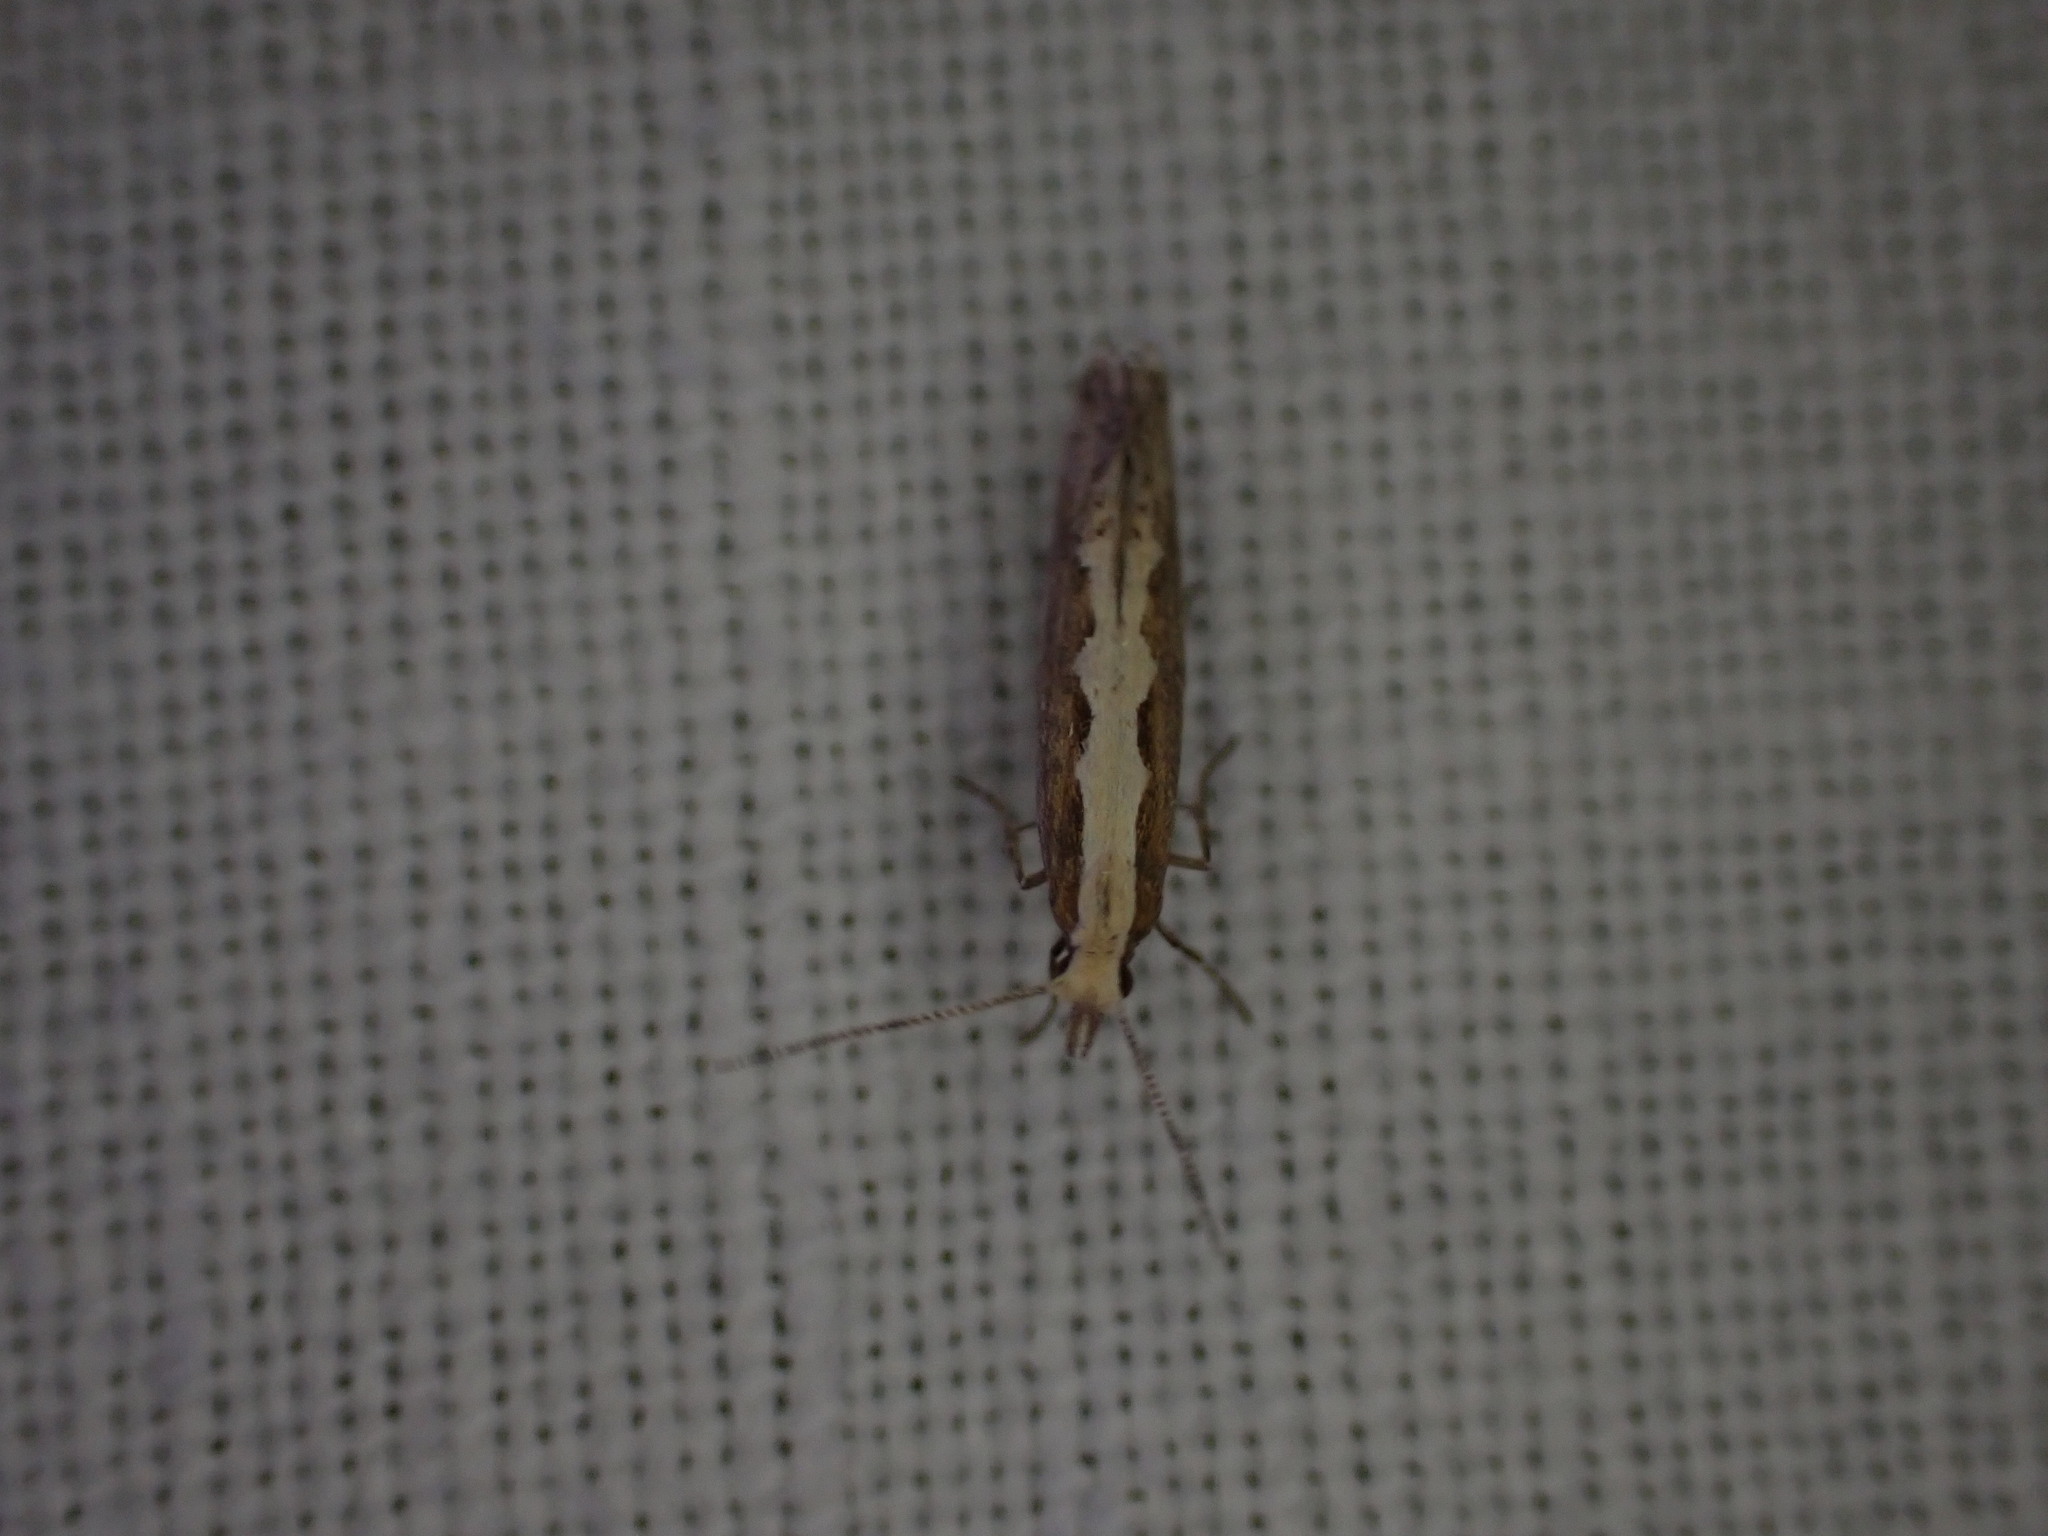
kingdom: Animalia
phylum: Arthropoda
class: Insecta
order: Lepidoptera
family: Plutellidae
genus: Plutella
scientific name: Plutella xylostella
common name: Diamond-back moth
